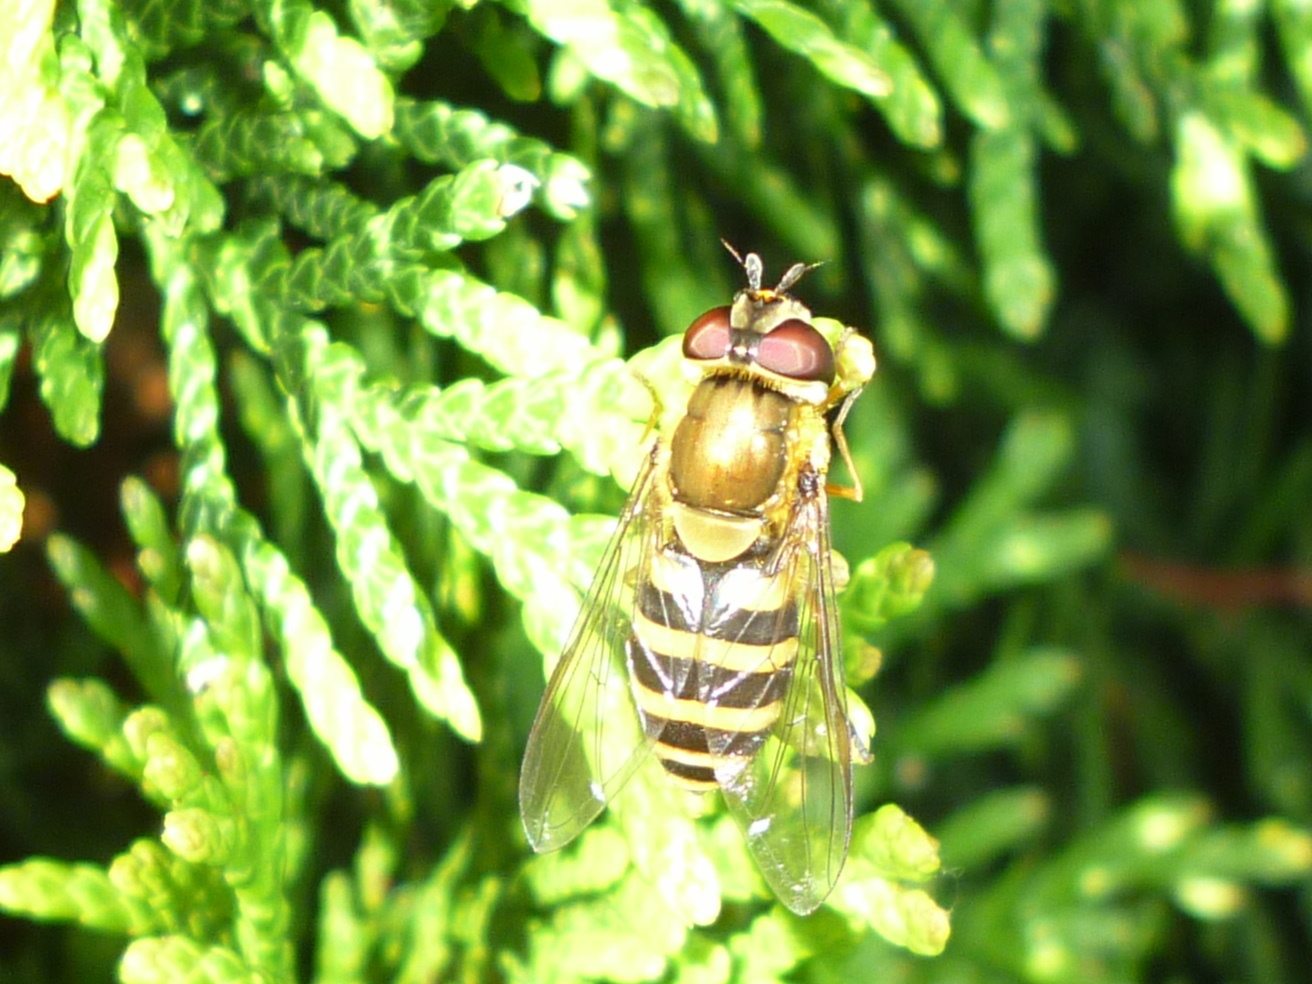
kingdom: Animalia
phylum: Arthropoda
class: Insecta
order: Diptera
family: Syrphidae
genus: Syrphus
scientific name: Syrphus
